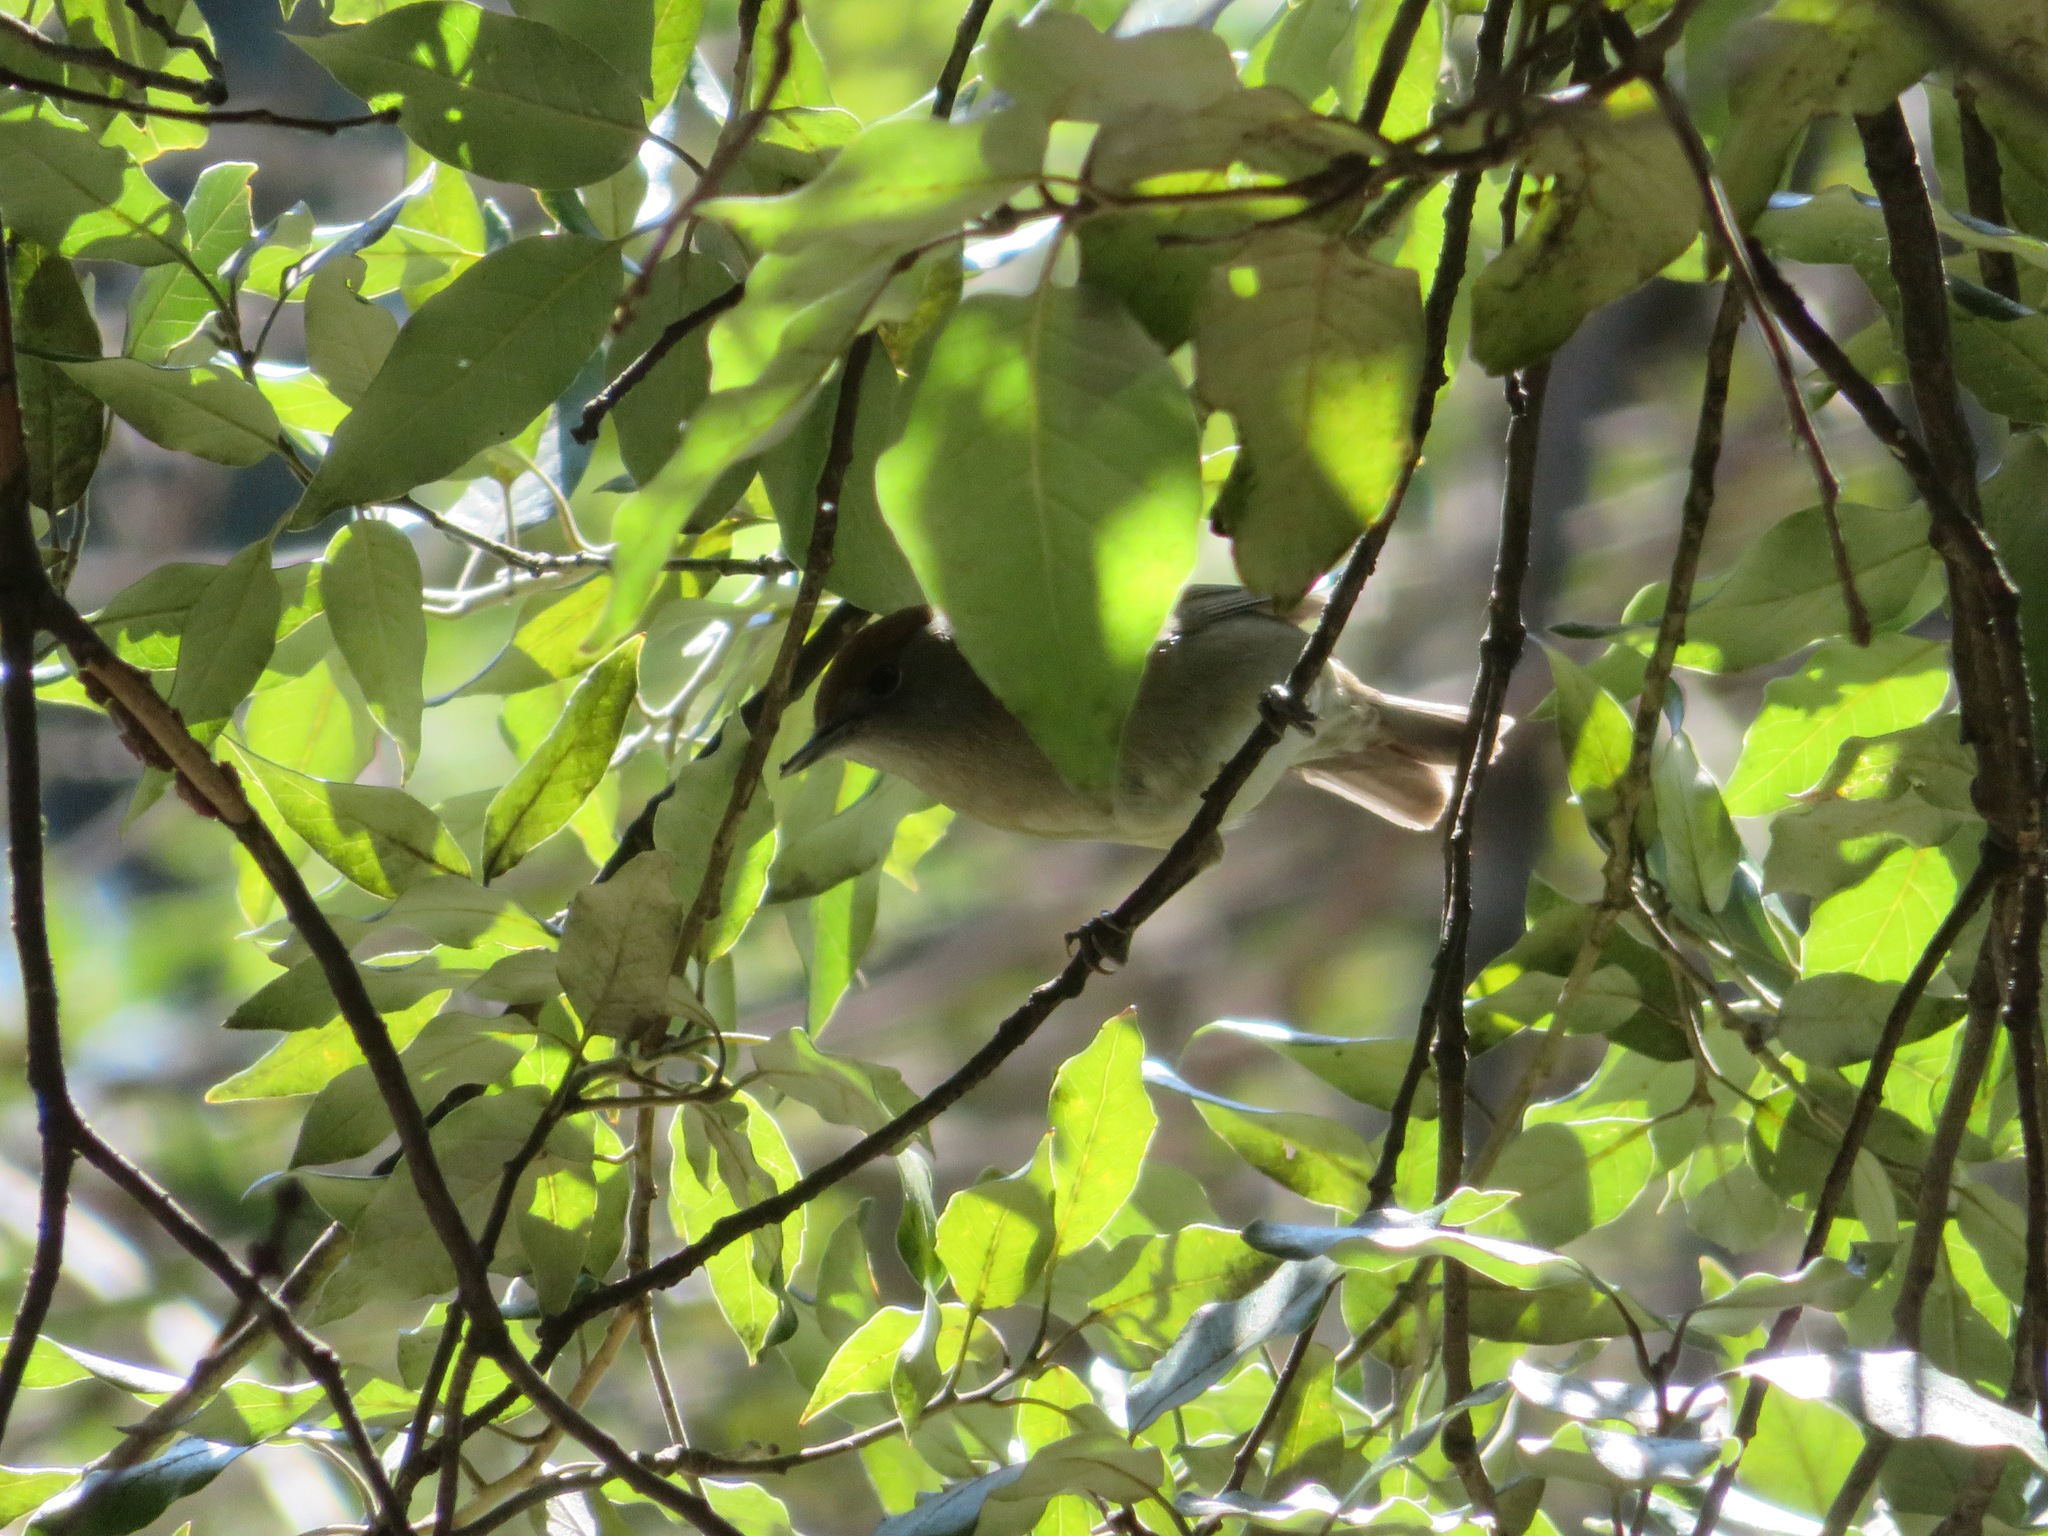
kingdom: Animalia
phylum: Chordata
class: Aves
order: Passeriformes
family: Phylloscopidae
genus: Phylloscopus
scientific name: Phylloscopus collybita
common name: Common chiffchaff
